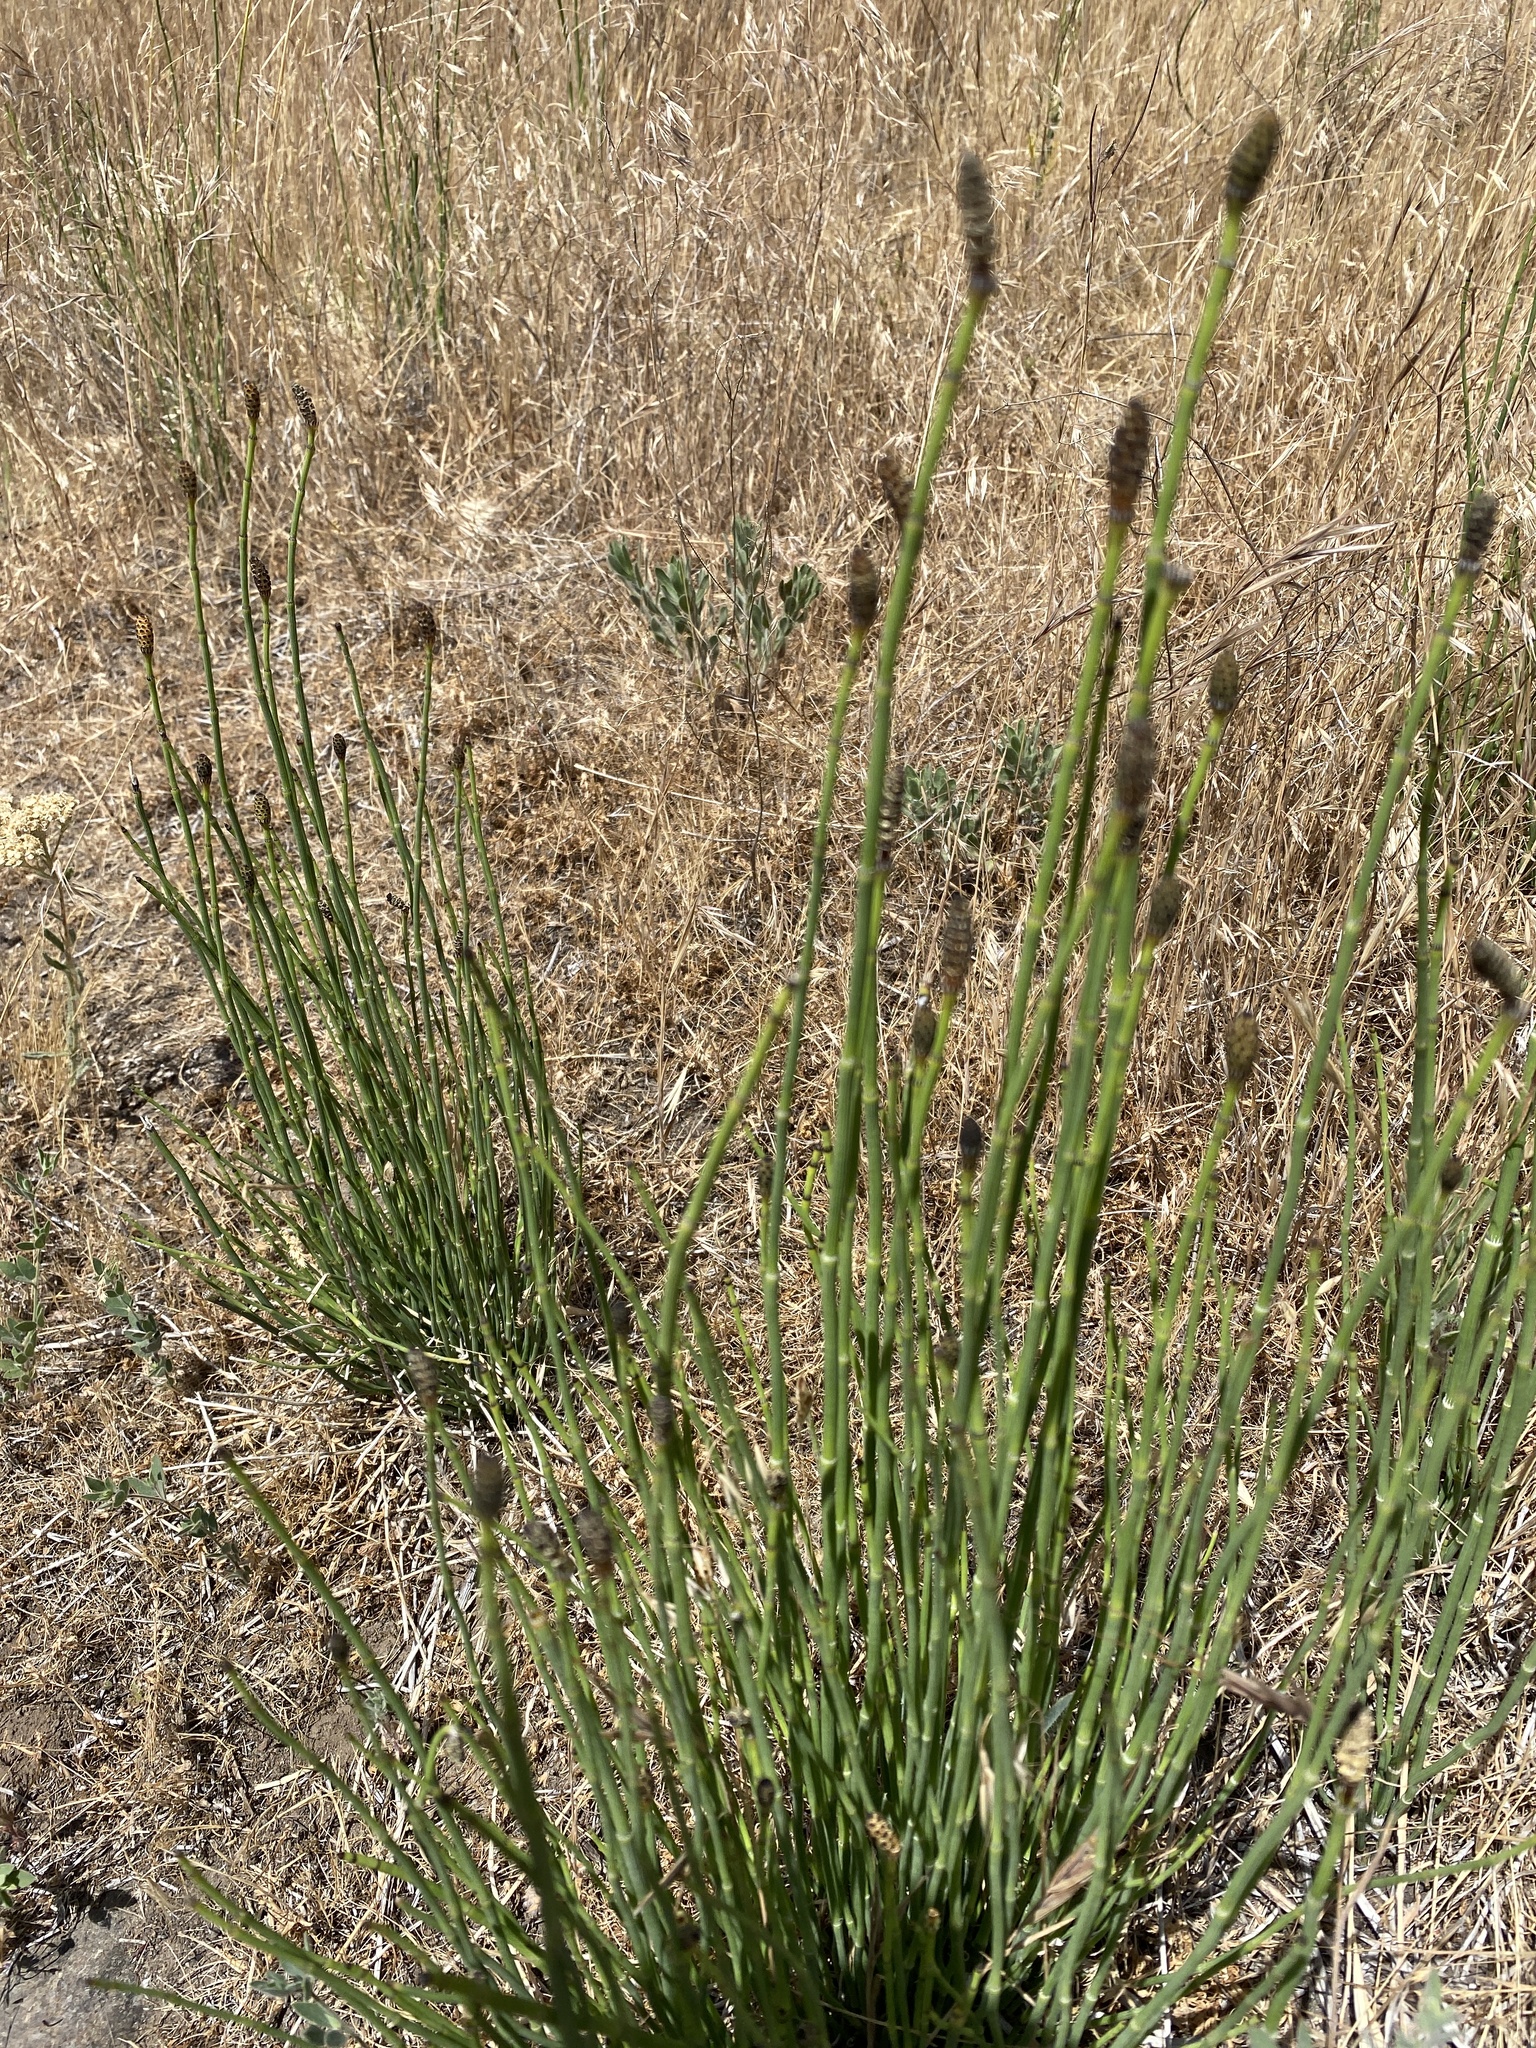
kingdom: Plantae
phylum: Tracheophyta
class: Polypodiopsida
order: Equisetales
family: Equisetaceae
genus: Equisetum
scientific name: Equisetum laevigatum
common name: Smooth scouring-rush
